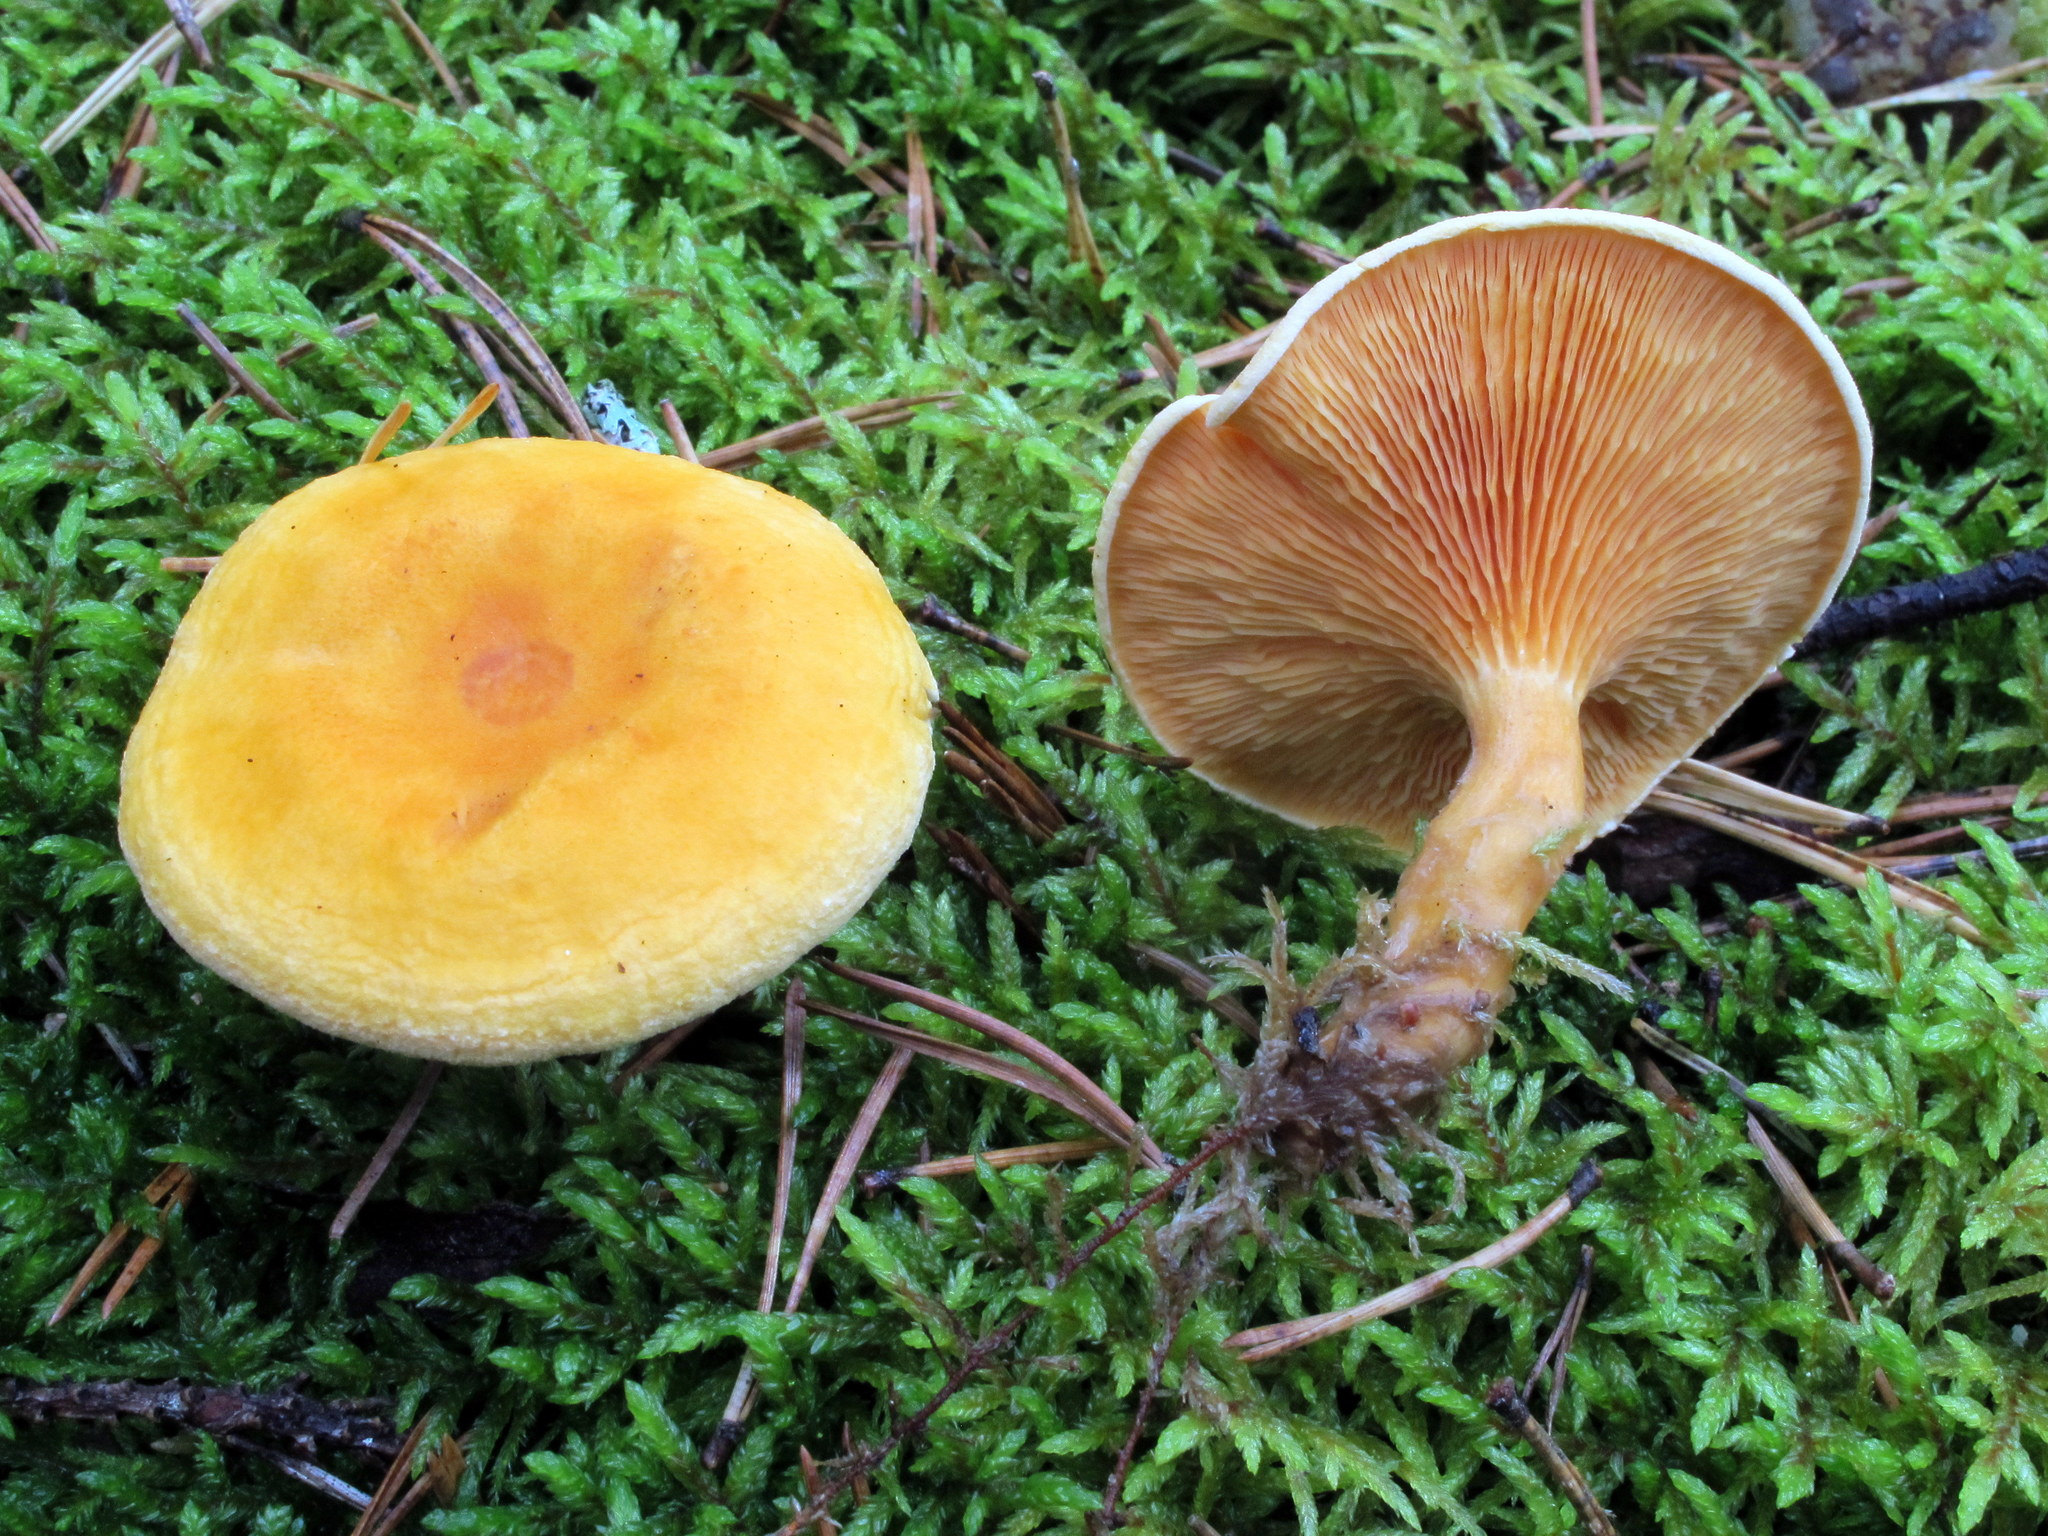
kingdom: Fungi
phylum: Basidiomycota
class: Agaricomycetes
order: Boletales
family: Hygrophoropsidaceae
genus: Hygrophoropsis
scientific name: Hygrophoropsis aurantiaca
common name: False chanterelle
